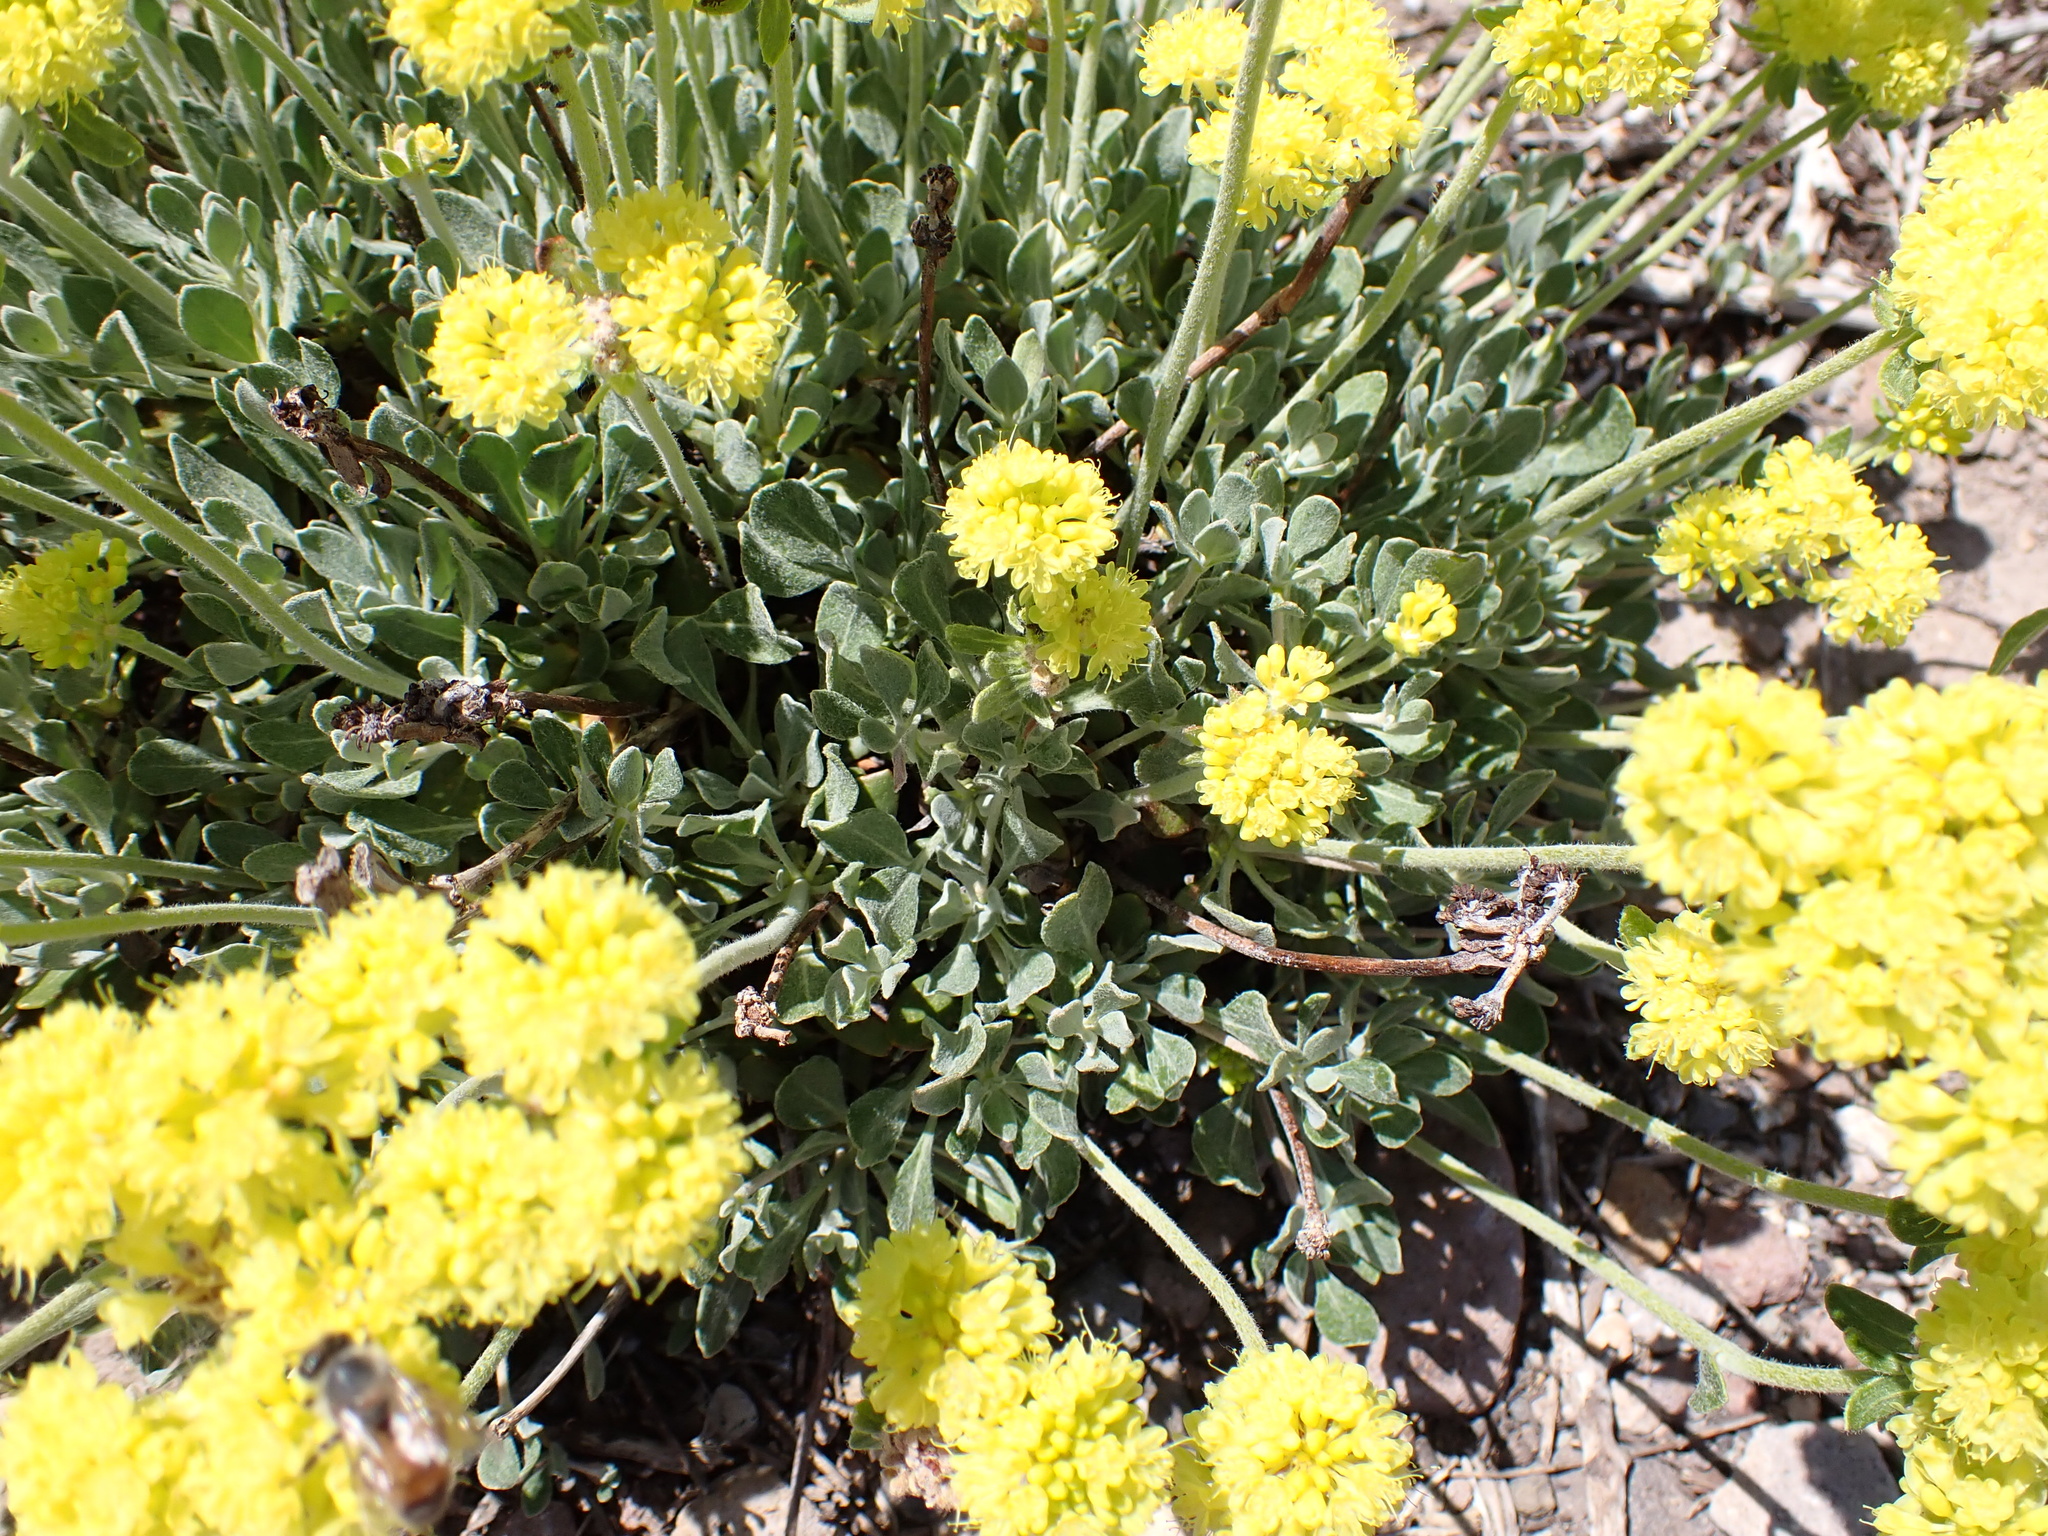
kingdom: Plantae
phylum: Tracheophyta
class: Magnoliopsida
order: Caryophyllales
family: Polygonaceae
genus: Eriogonum
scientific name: Eriogonum umbellatum
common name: Sulfur-buckwheat
